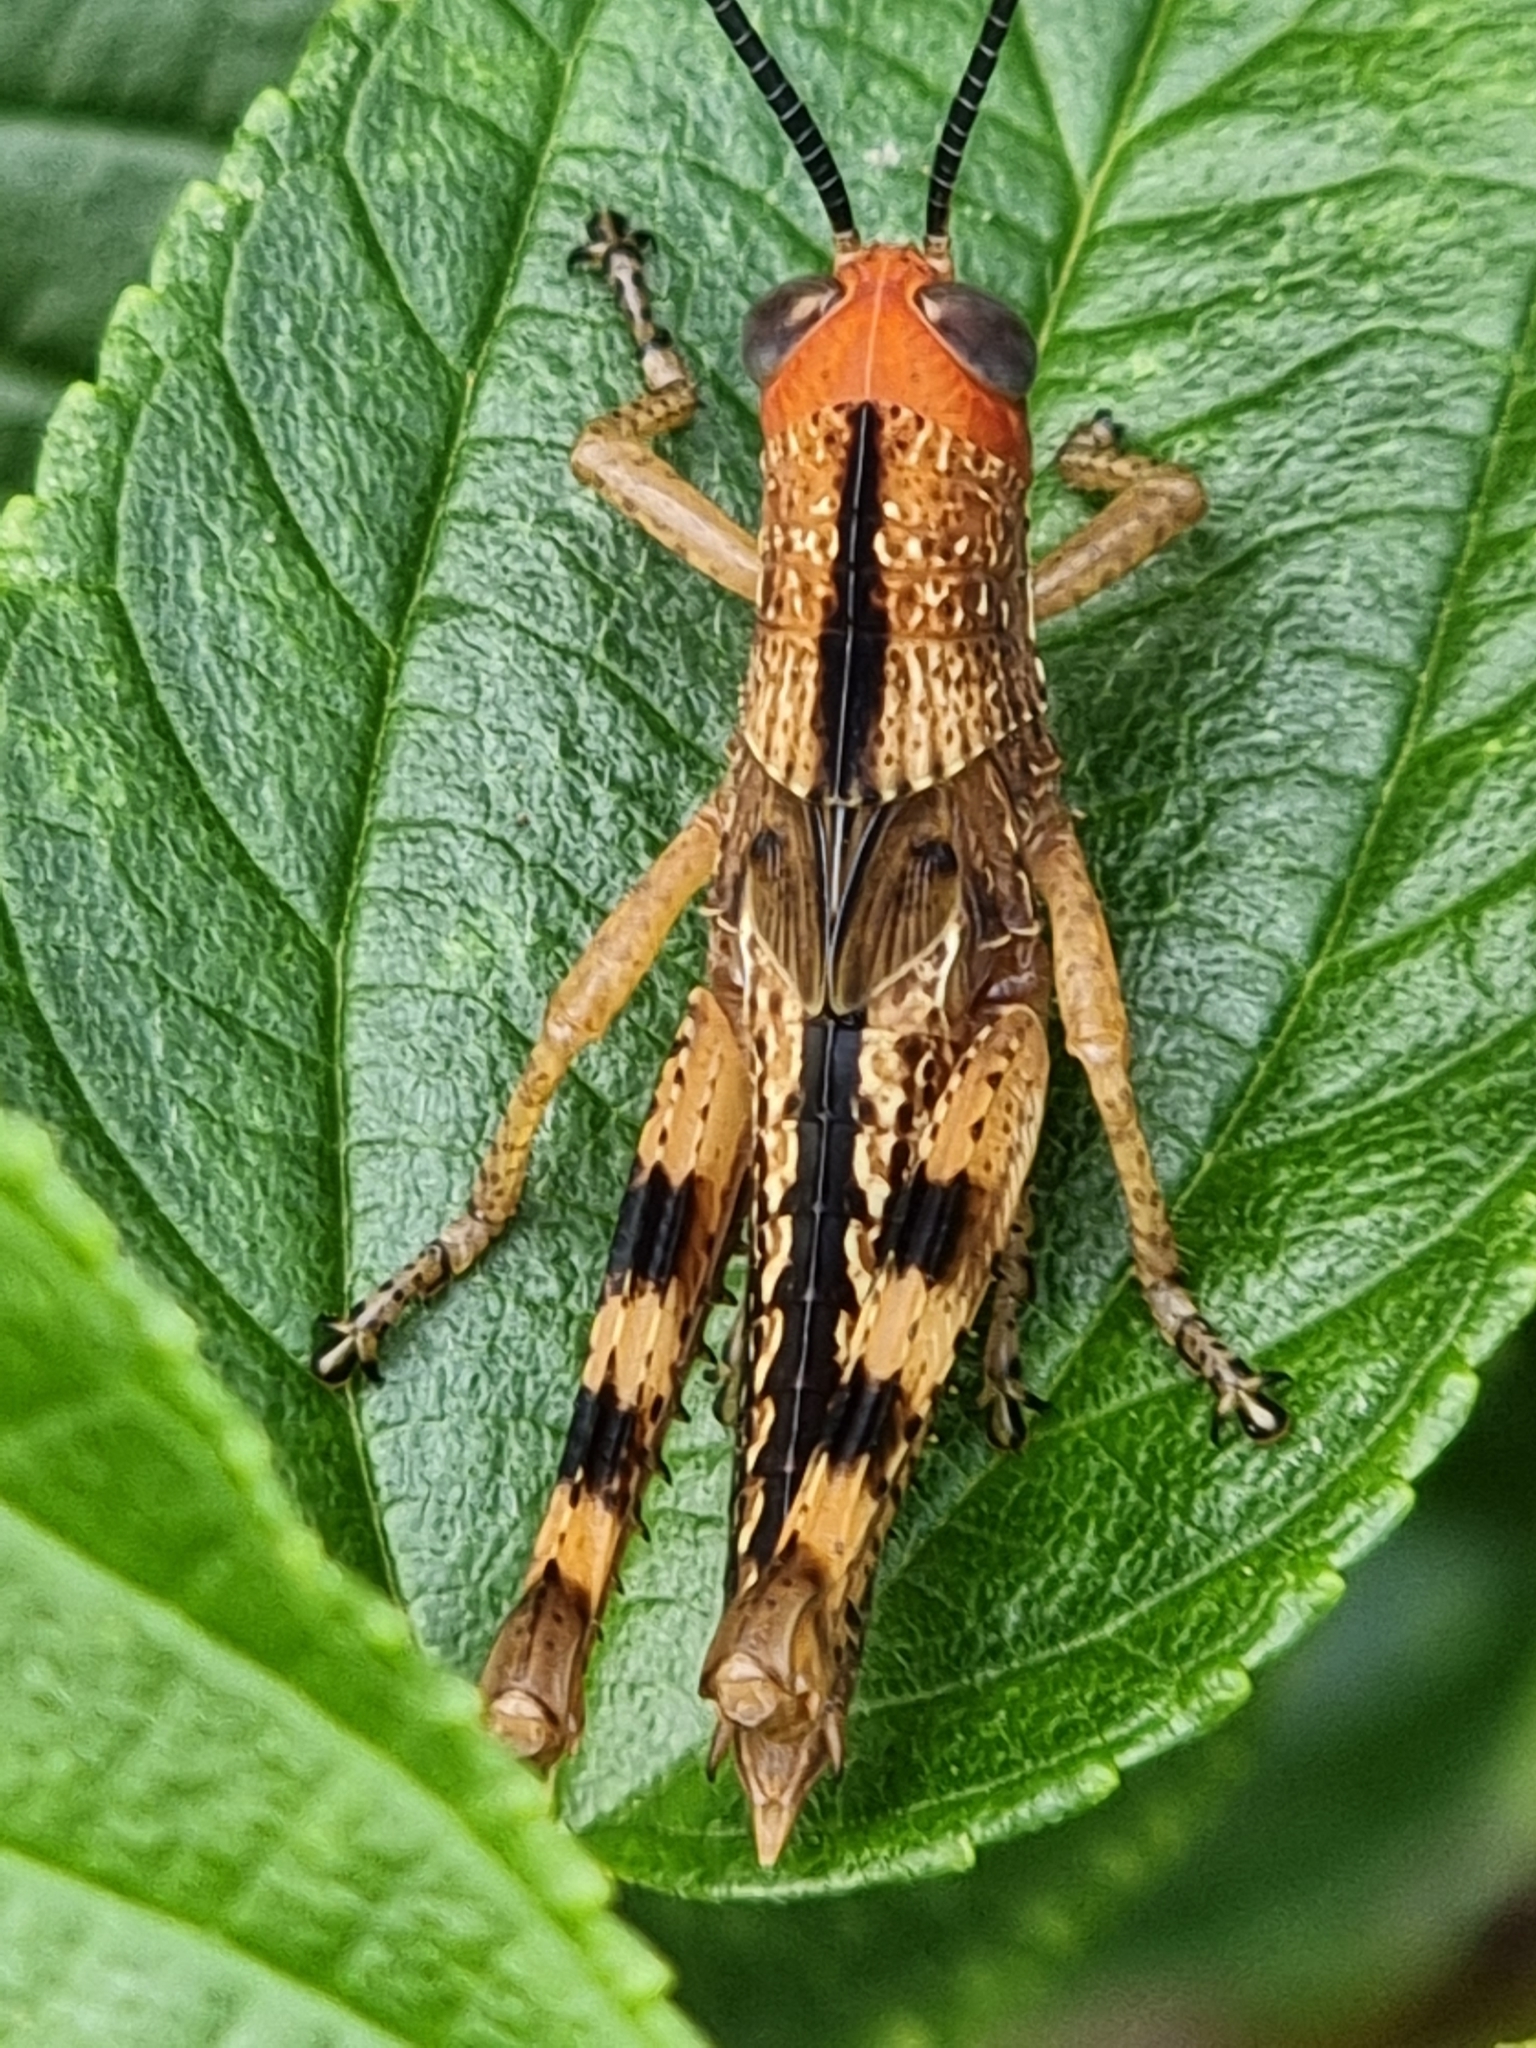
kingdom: Animalia
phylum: Arthropoda
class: Insecta
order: Orthoptera
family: Acrididae
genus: Valanga
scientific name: Valanga irregularis
